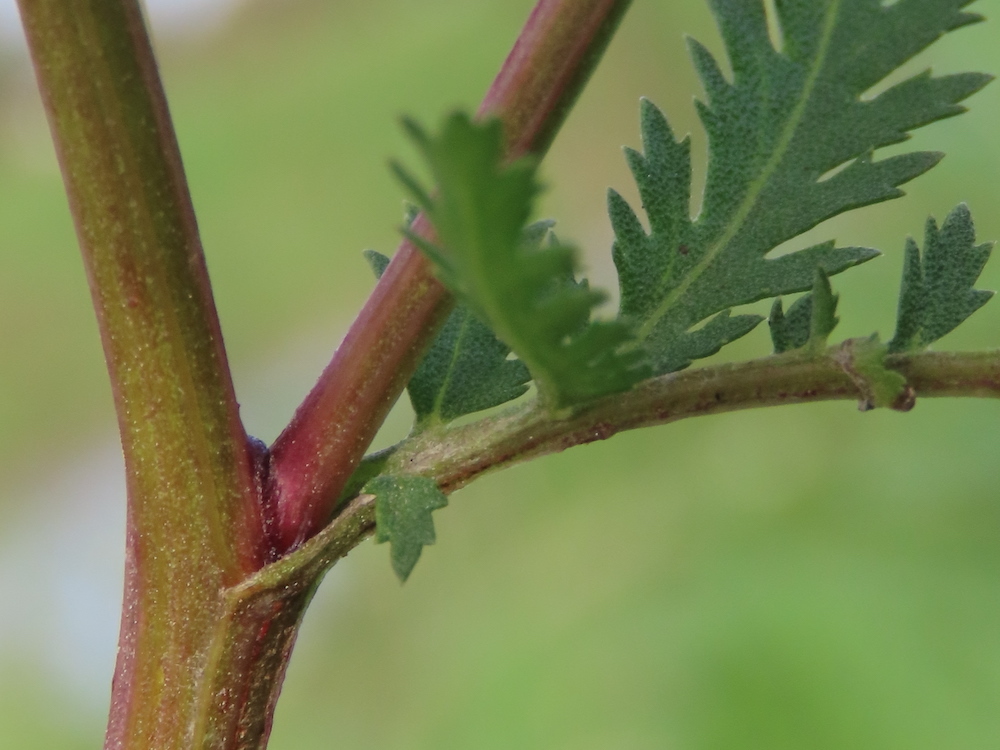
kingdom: Plantae
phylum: Tracheophyta
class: Magnoliopsida
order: Asterales
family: Asteraceae
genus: Tanacetum
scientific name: Tanacetum vulgare
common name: Common tansy
